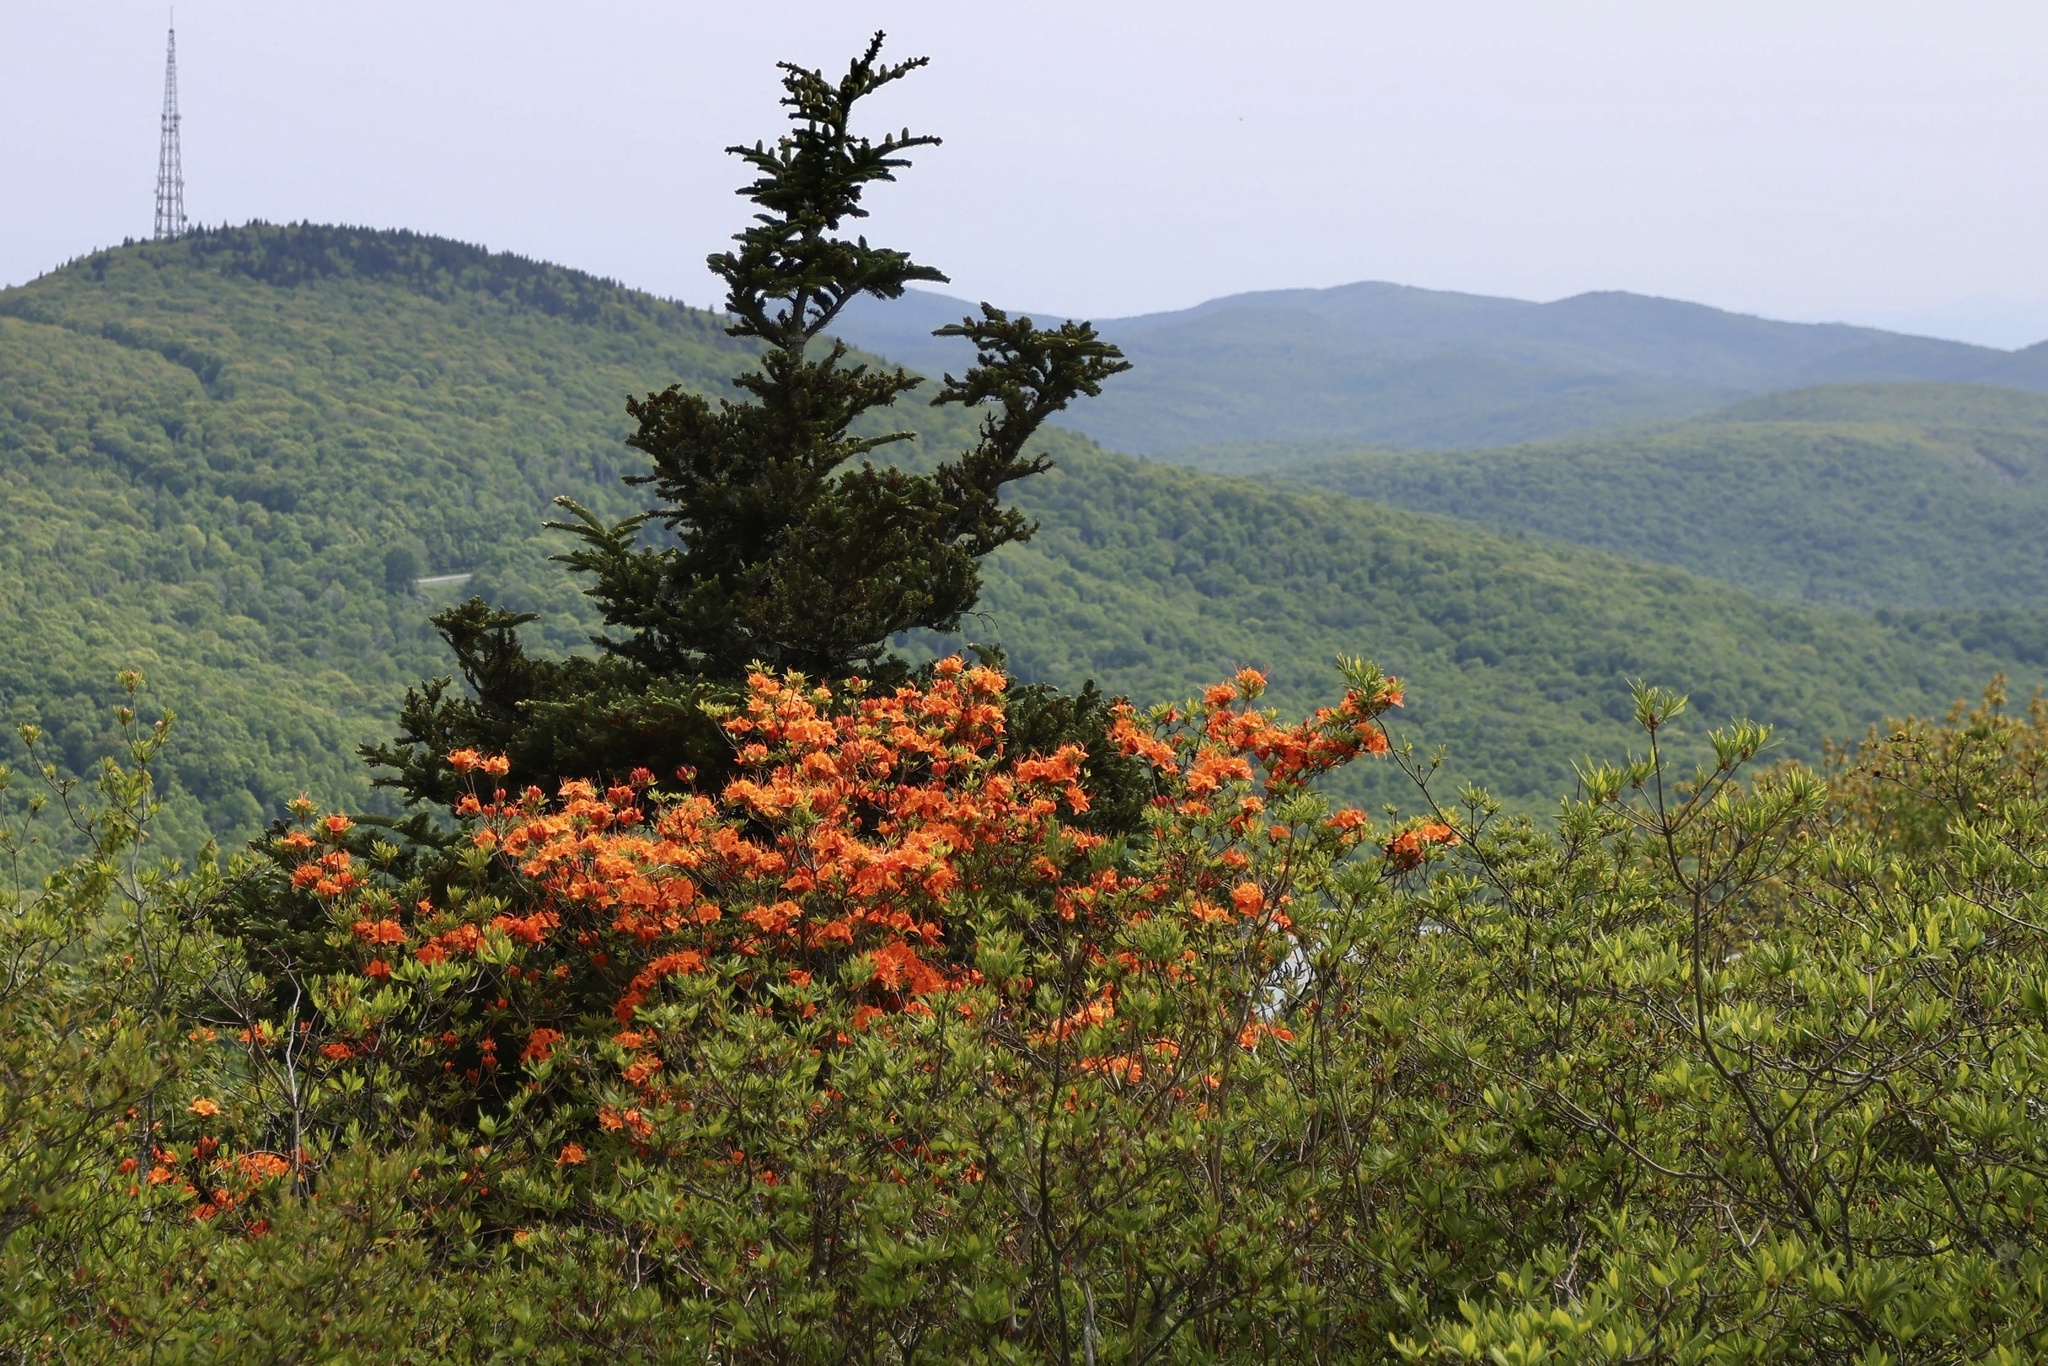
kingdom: Plantae
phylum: Tracheophyta
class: Magnoliopsida
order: Ericales
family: Ericaceae
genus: Rhododendron
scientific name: Rhododendron calendulaceum
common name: Flame azalea
